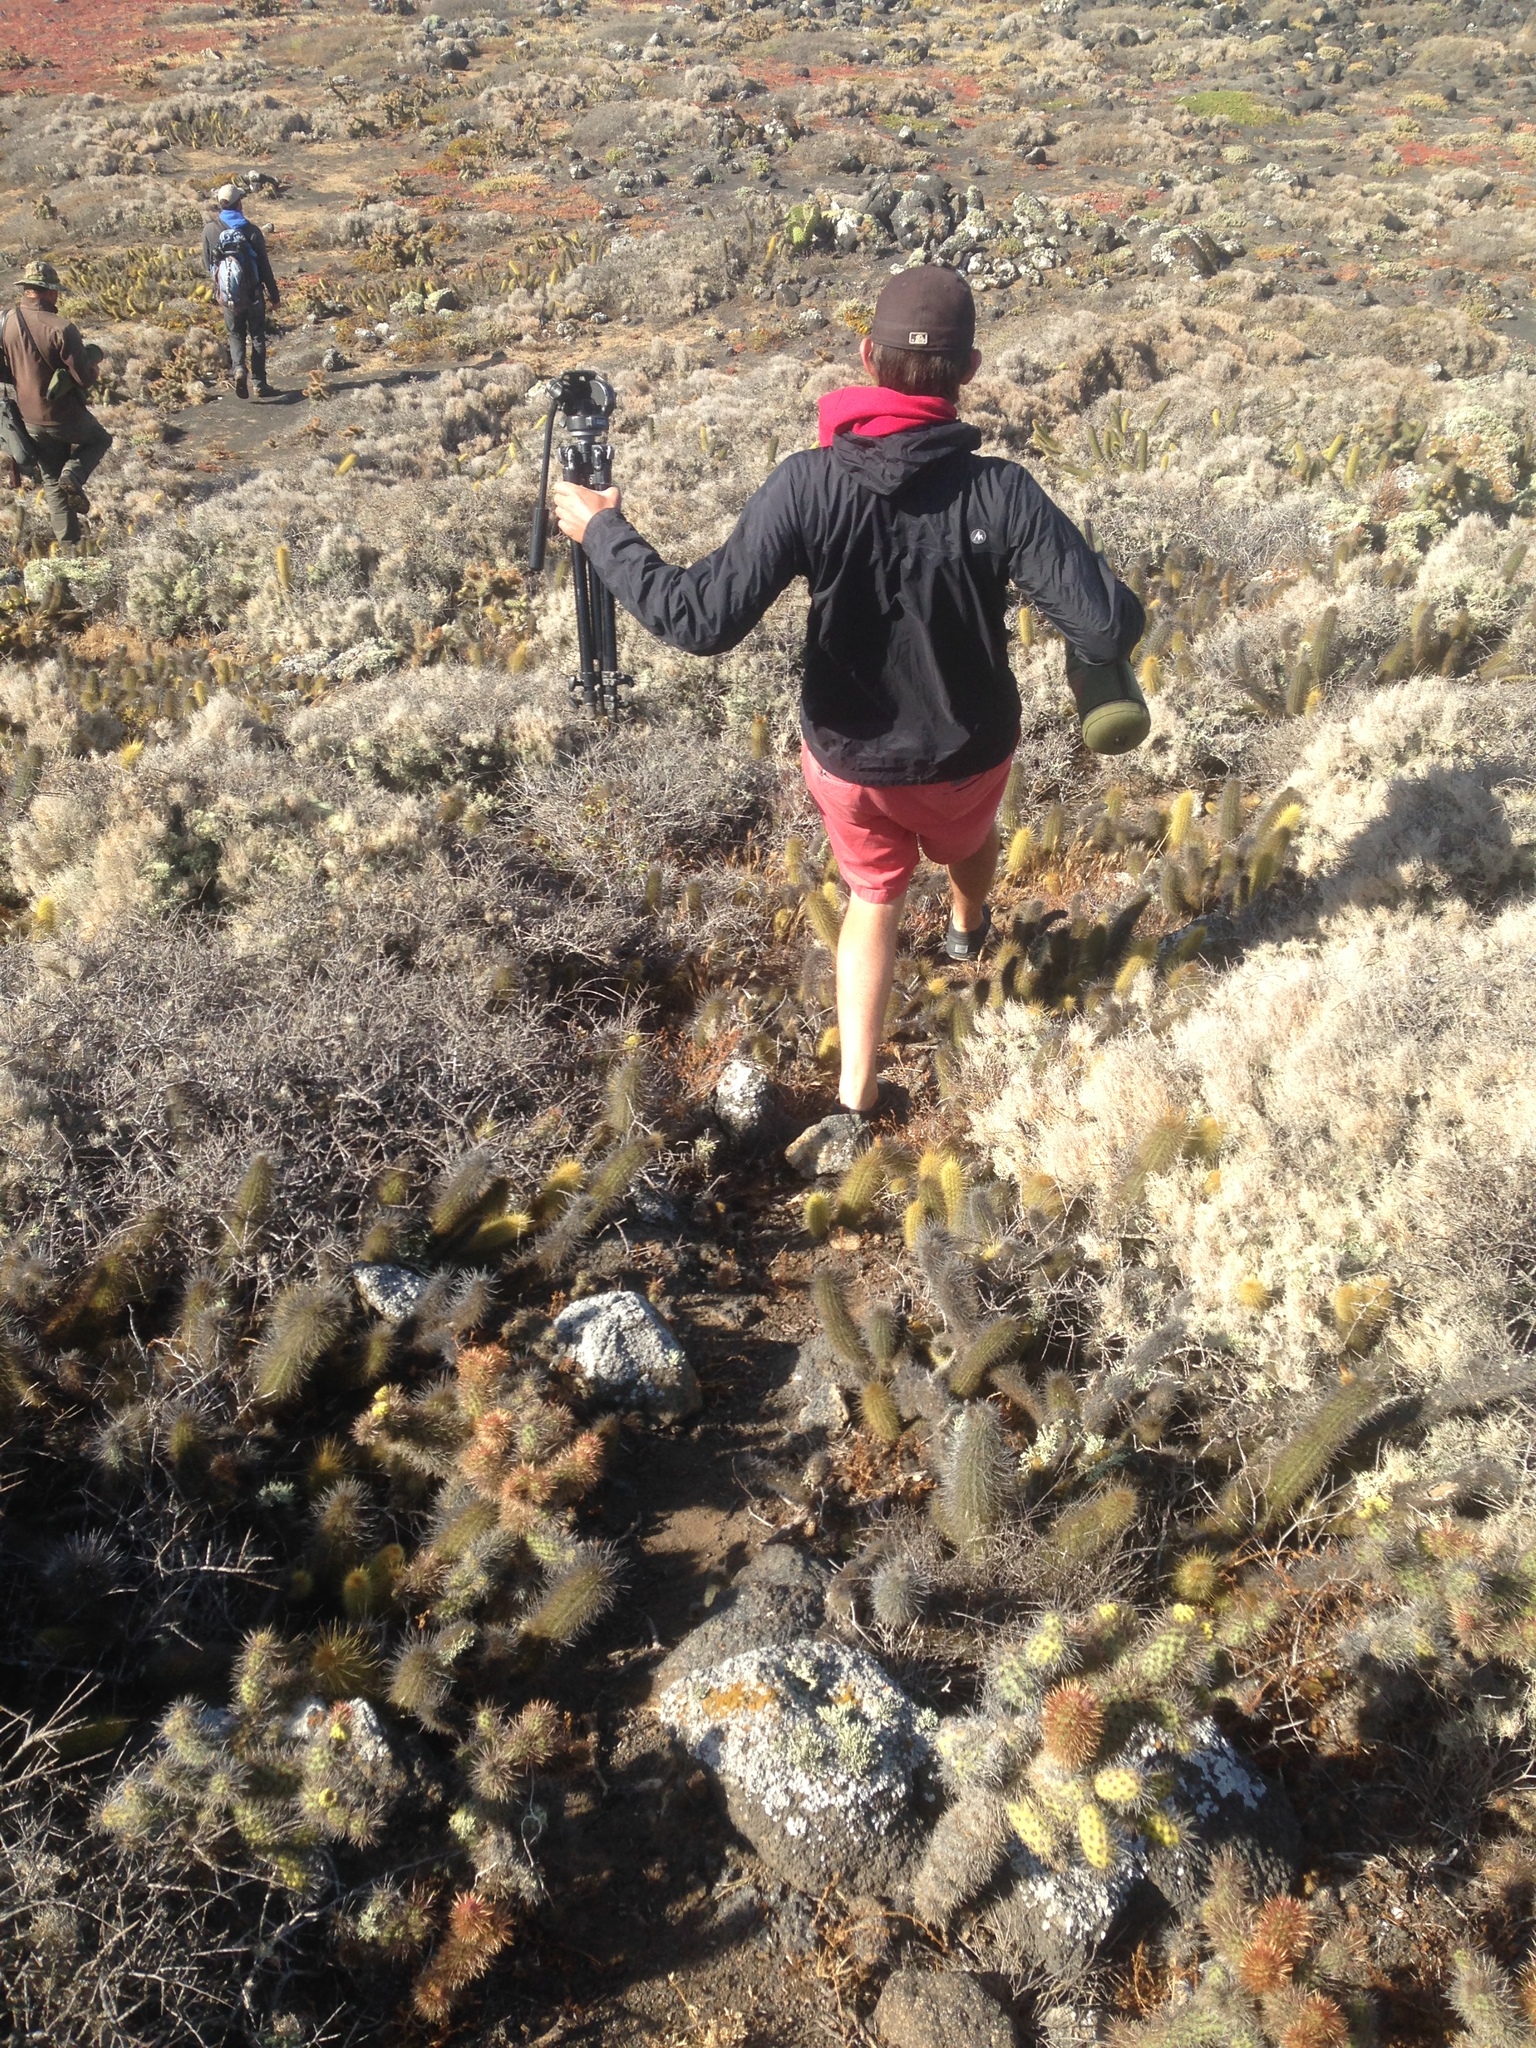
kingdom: Plantae
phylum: Tracheophyta
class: Magnoliopsida
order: Caryophyllales
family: Cactaceae
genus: Bergerocactus
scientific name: Bergerocactus emoryi
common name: Golden snakecactus
